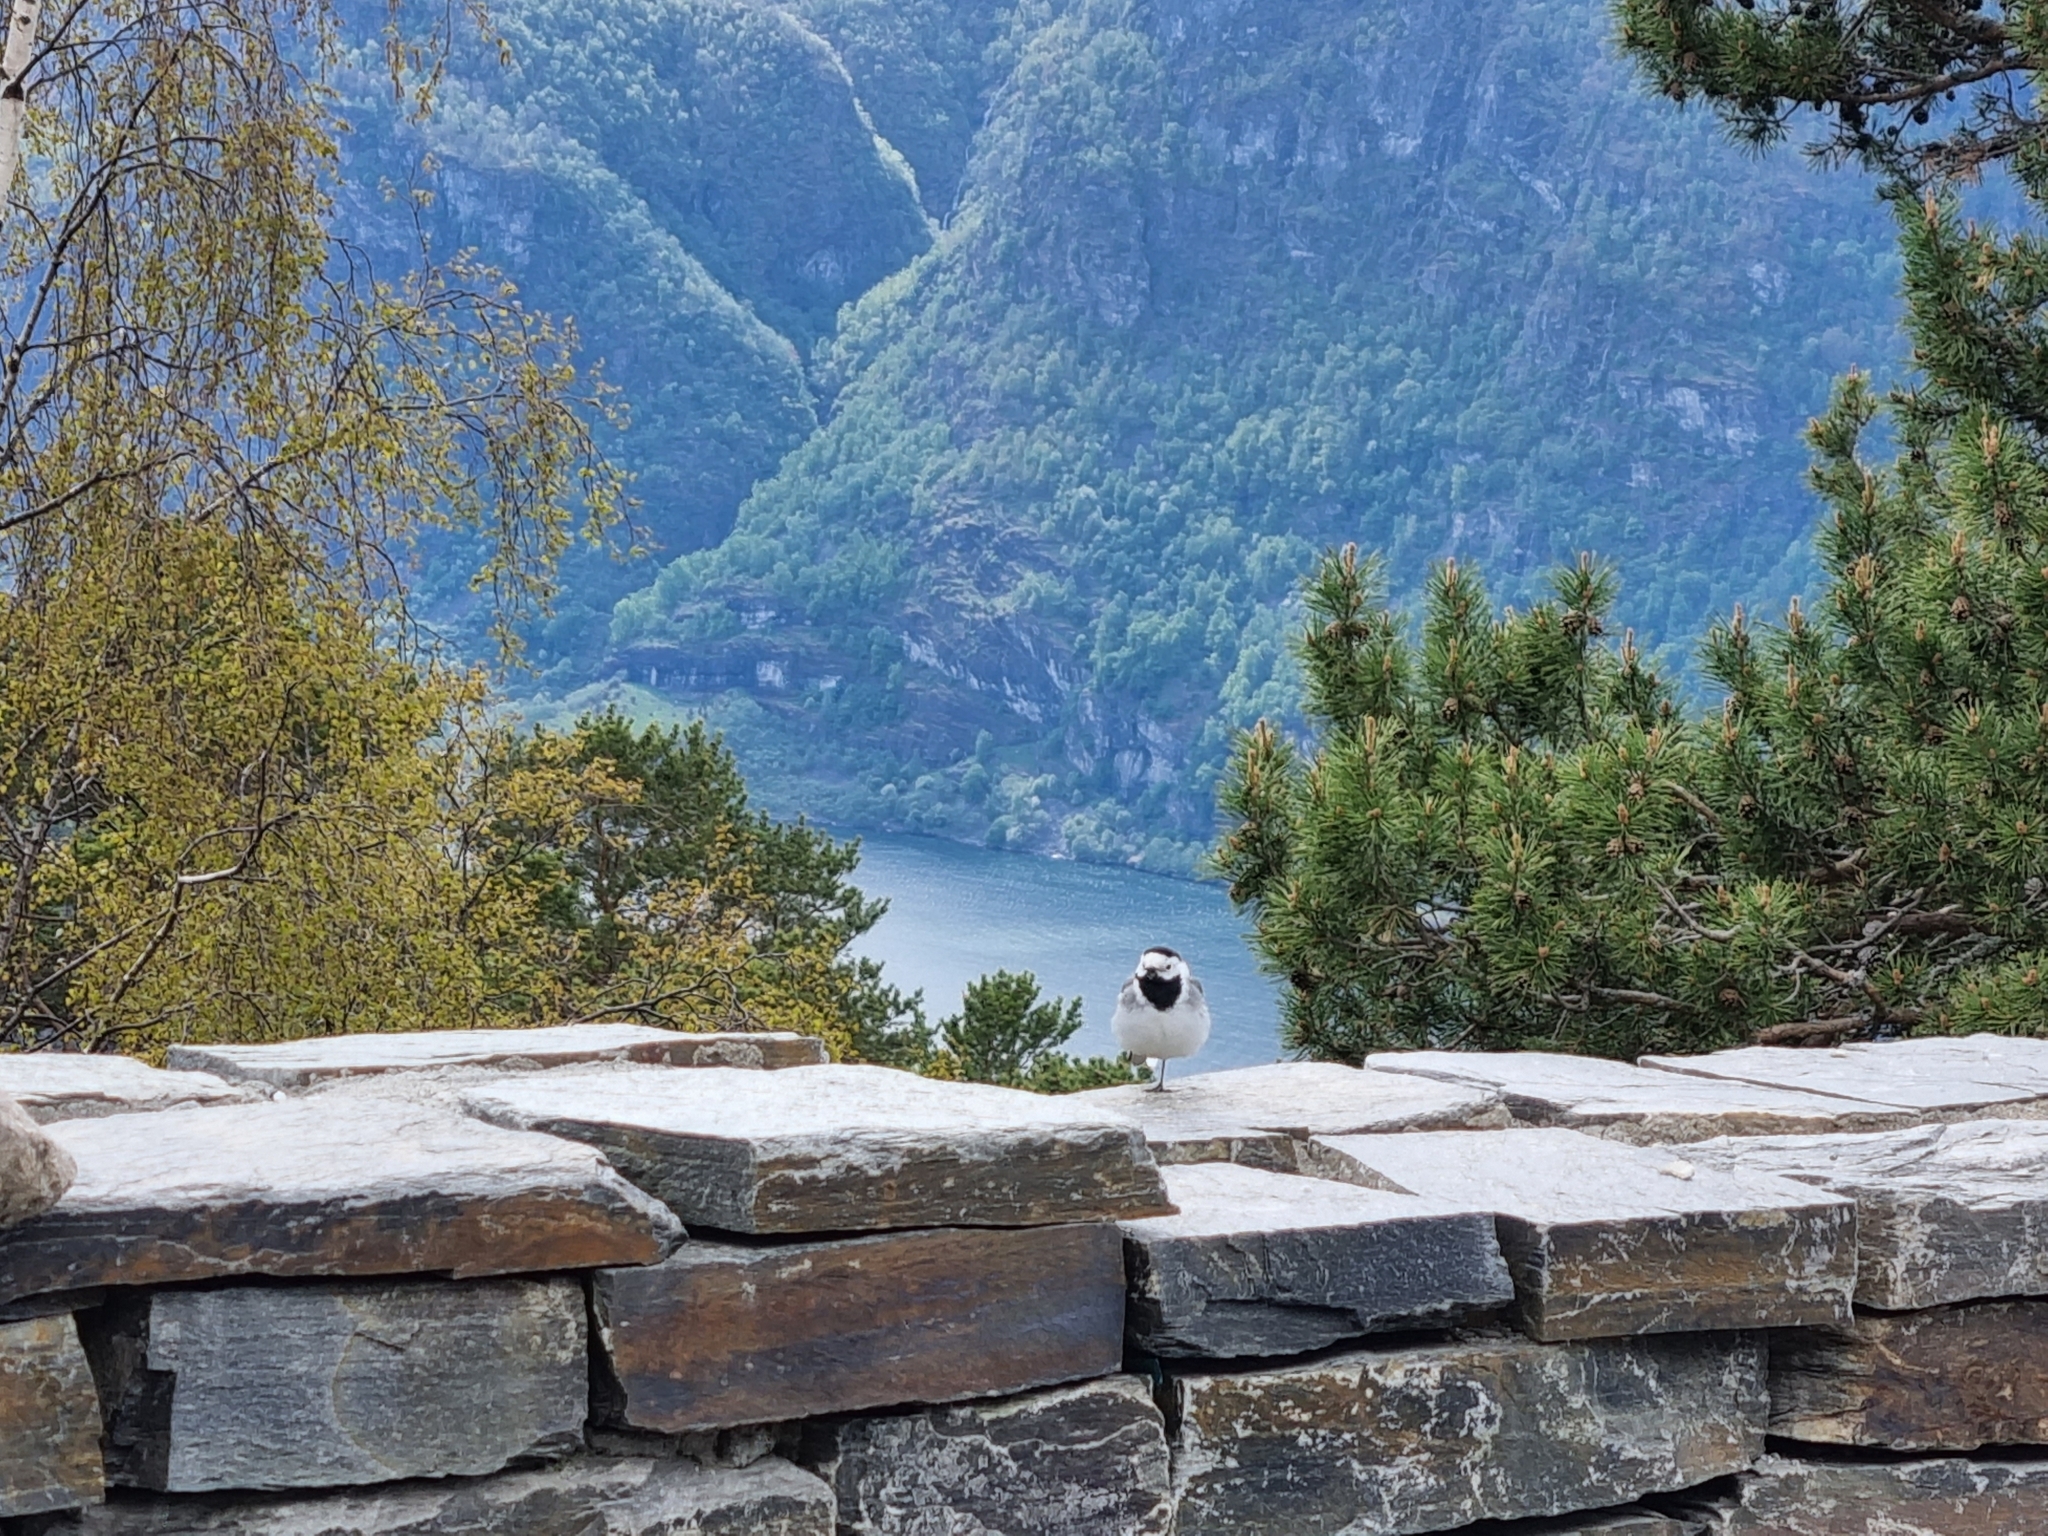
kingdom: Animalia
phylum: Chordata
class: Aves
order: Passeriformes
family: Motacillidae
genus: Motacilla
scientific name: Motacilla alba
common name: White wagtail
